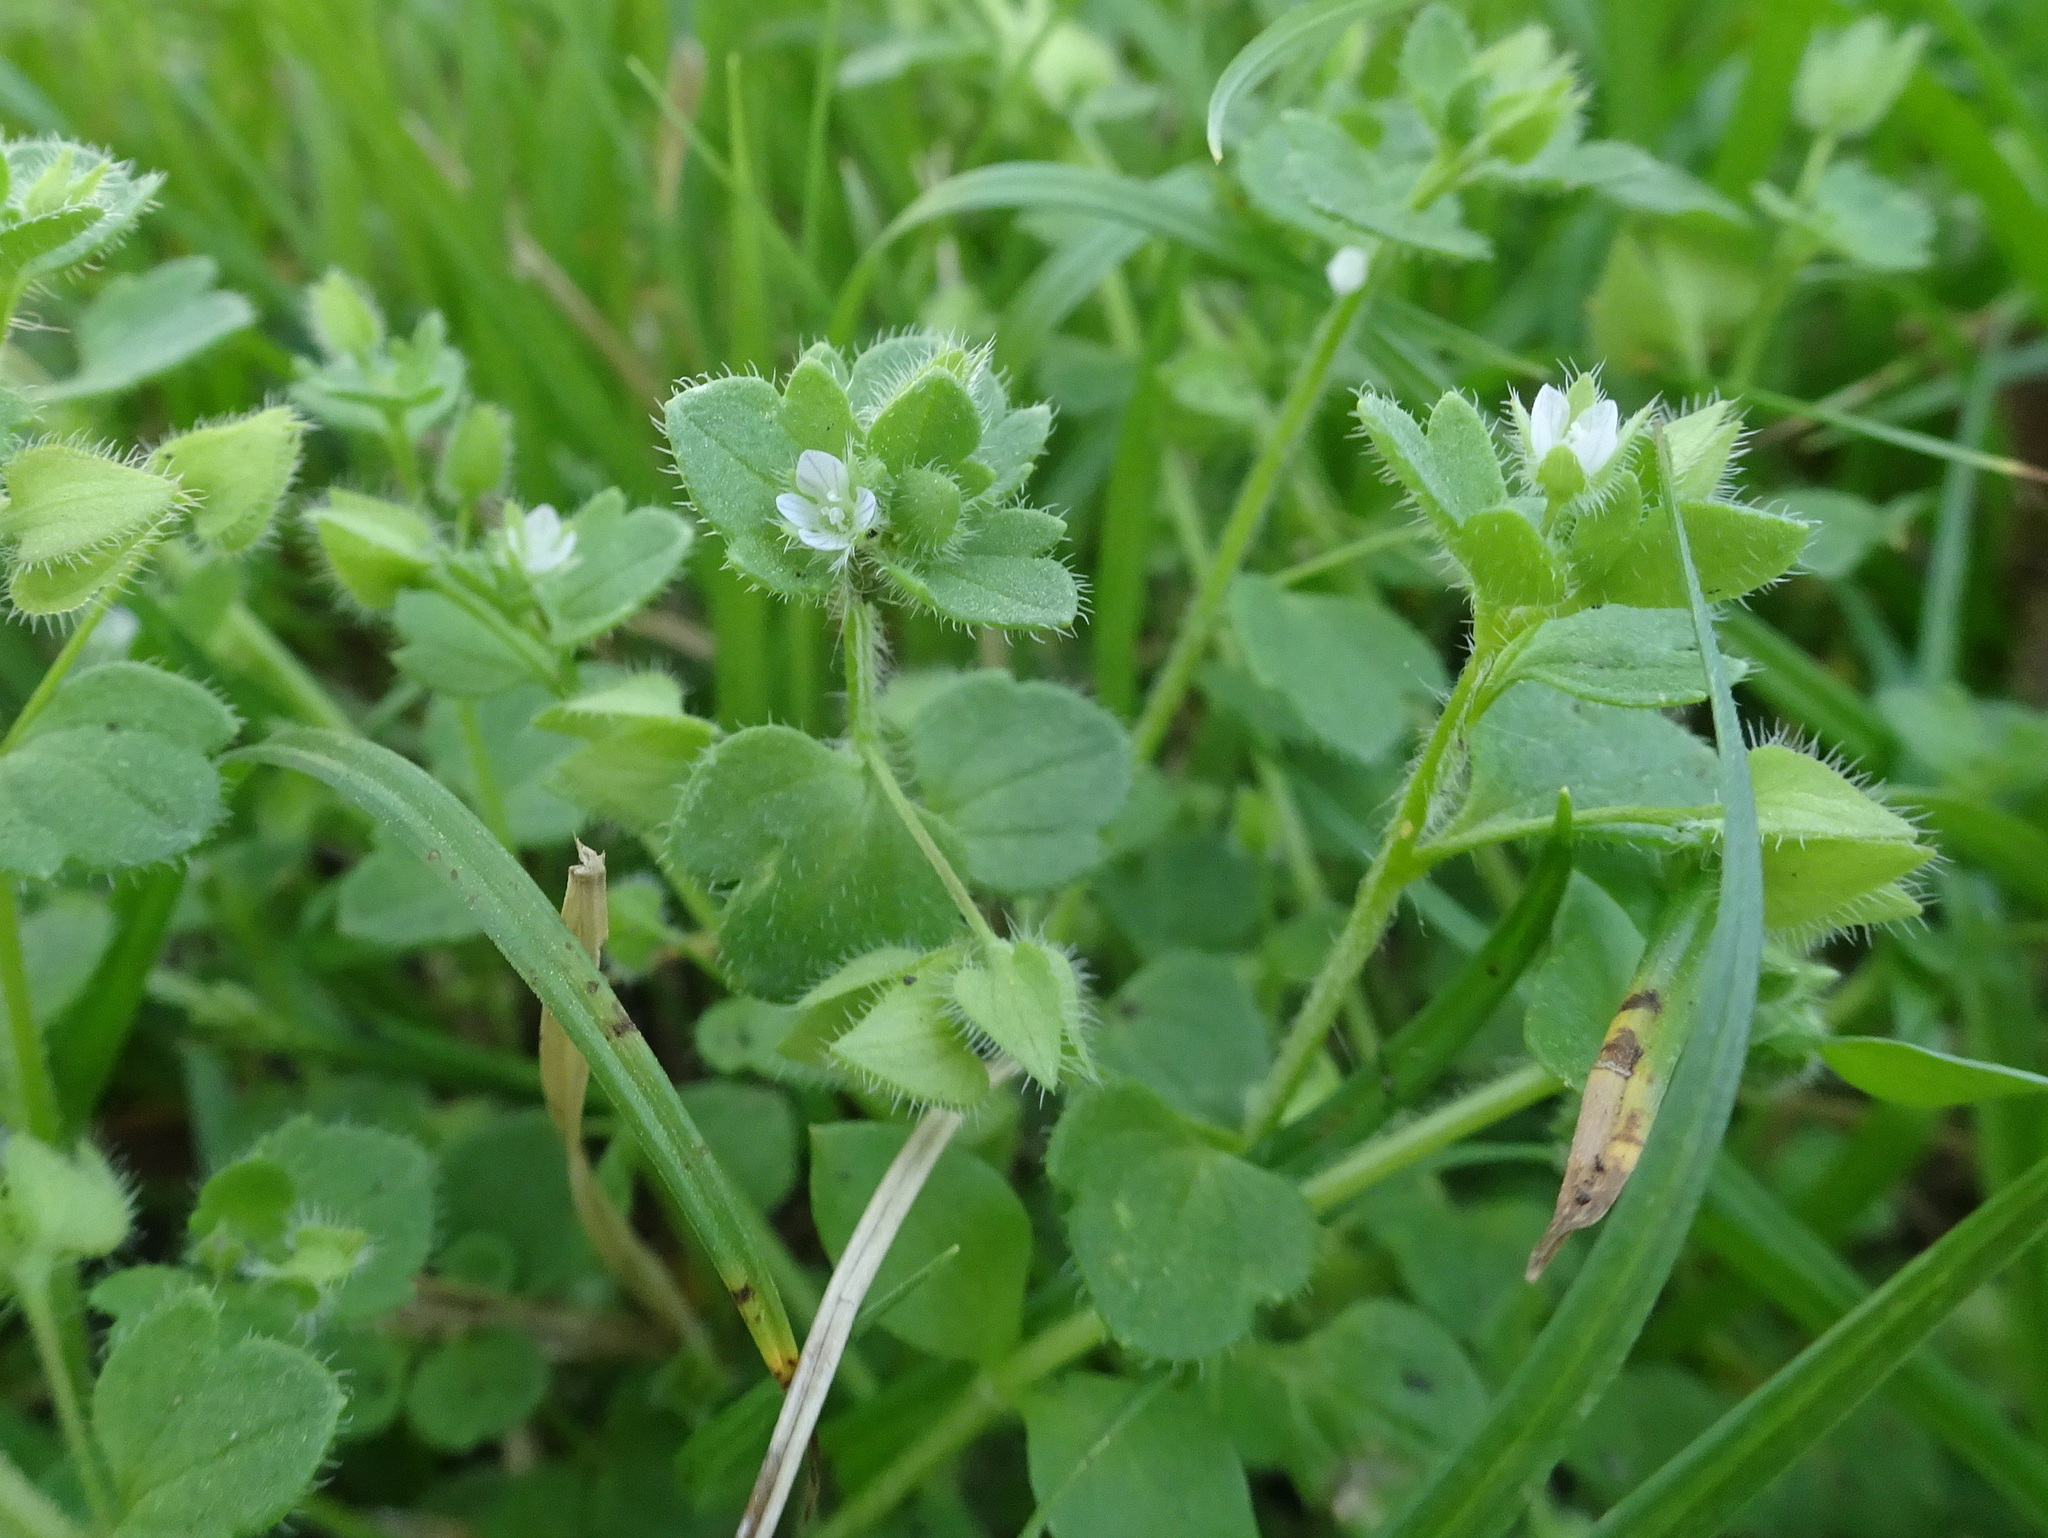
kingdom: Plantae
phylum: Tracheophyta
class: Magnoliopsida
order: Lamiales
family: Plantaginaceae
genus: Veronica
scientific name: Veronica hederifolia
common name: Ivy-leaved speedwell
